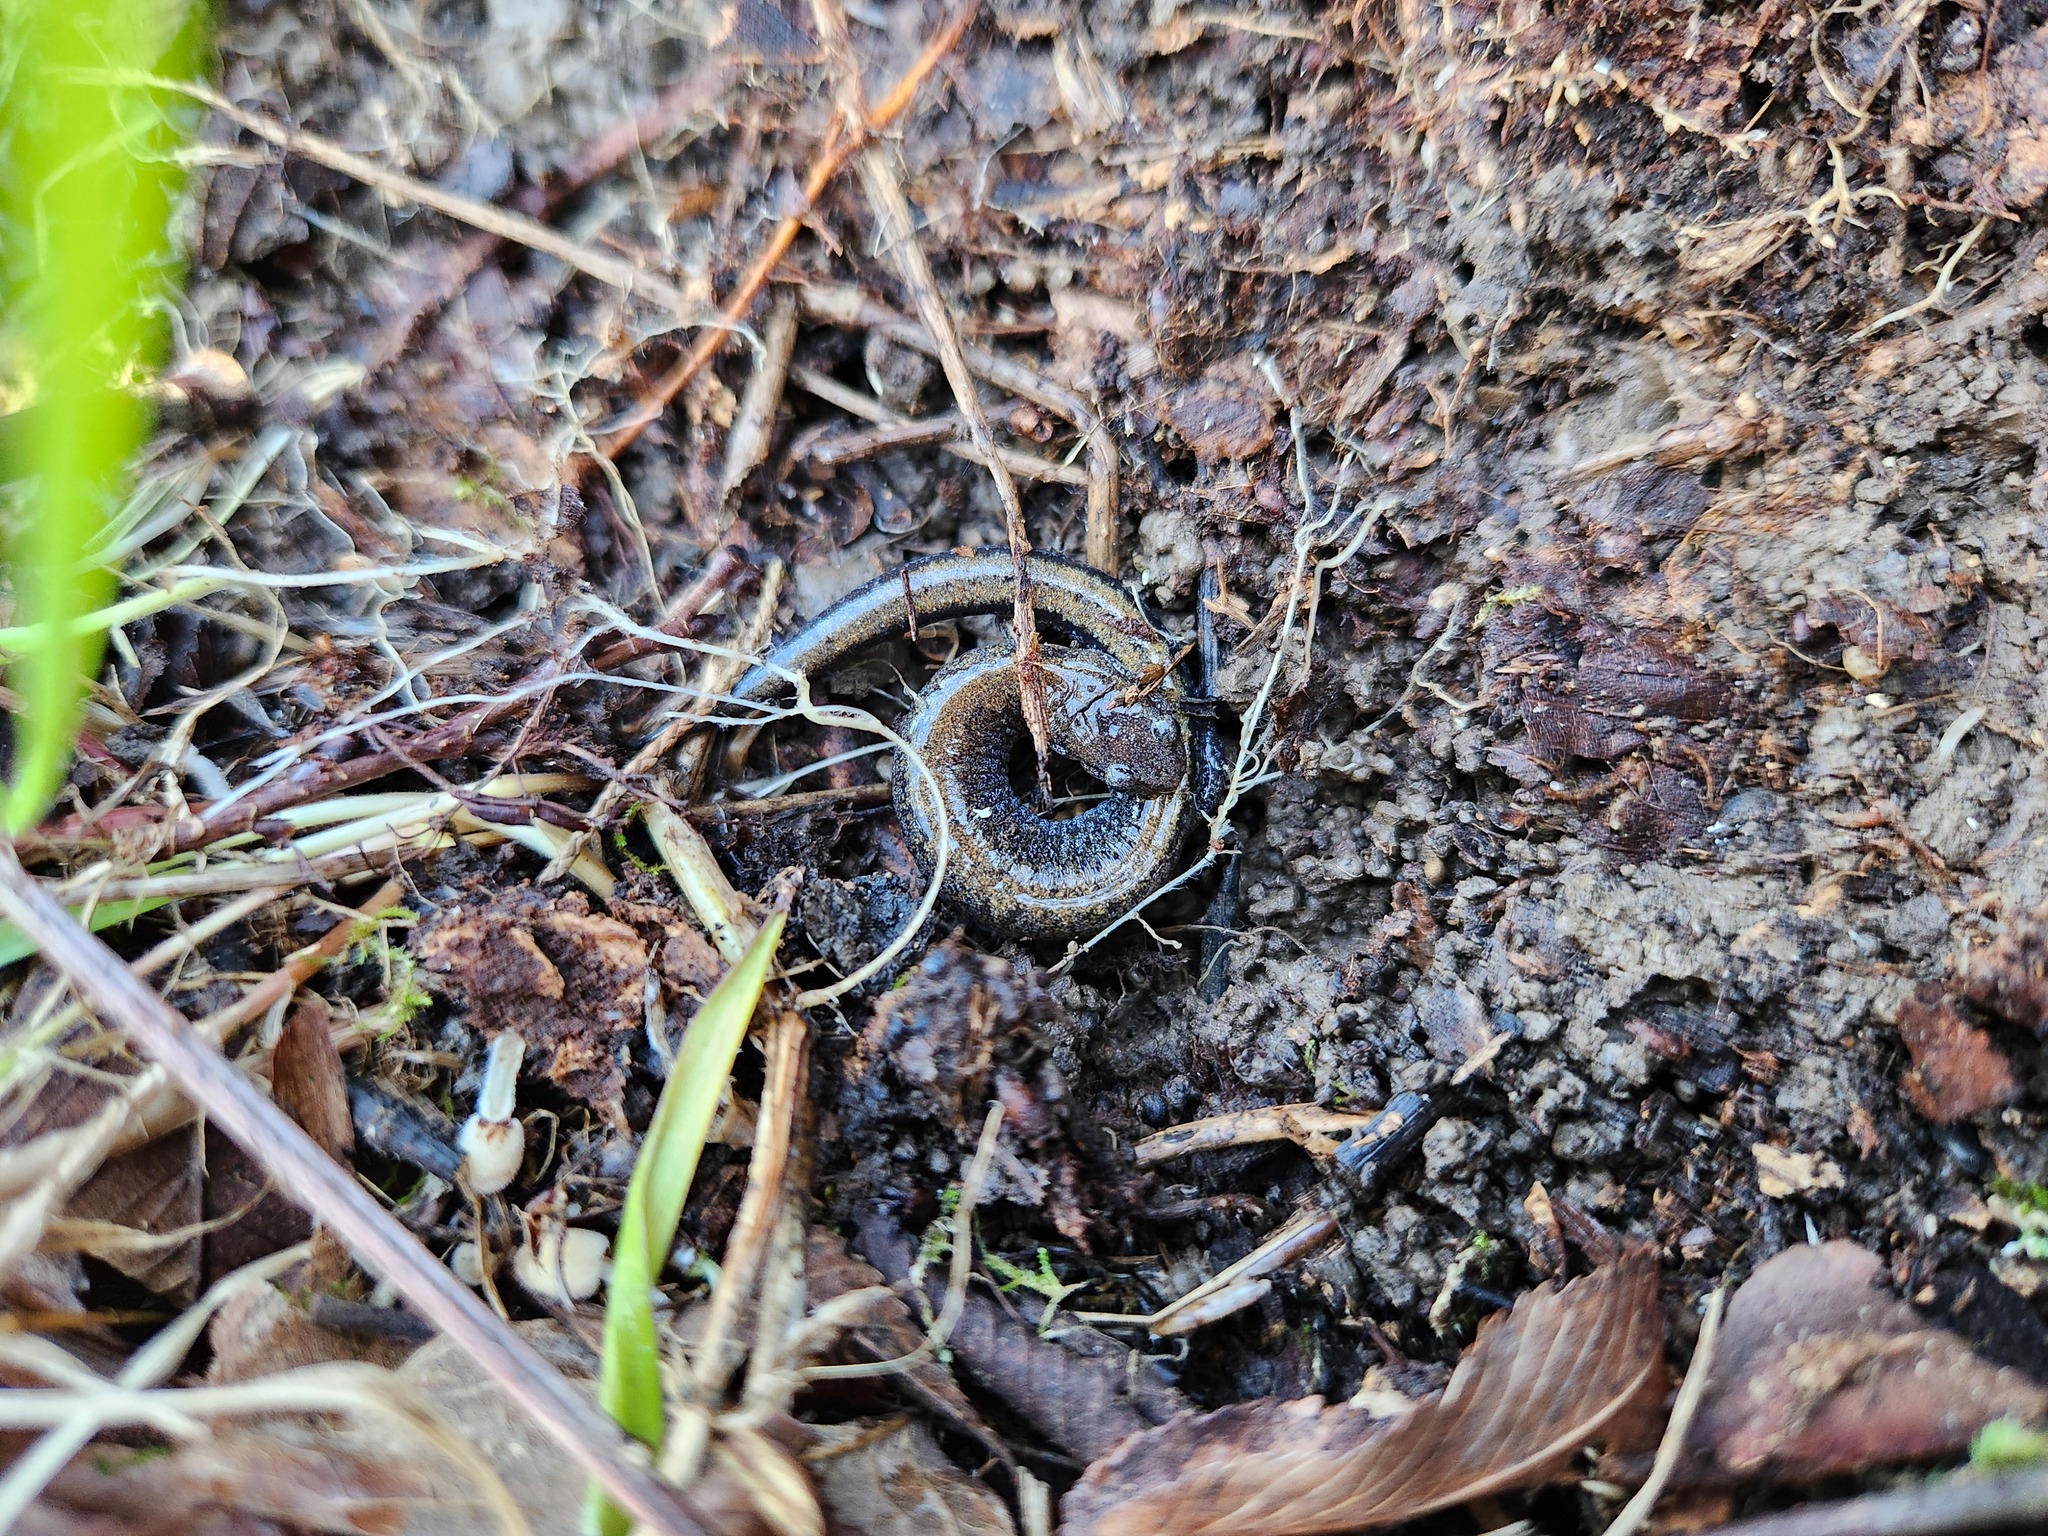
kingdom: Animalia
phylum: Chordata
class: Amphibia
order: Caudata
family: Plethodontidae
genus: Plethodon
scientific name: Plethodon dorsalis
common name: Northern zigzag salamander
